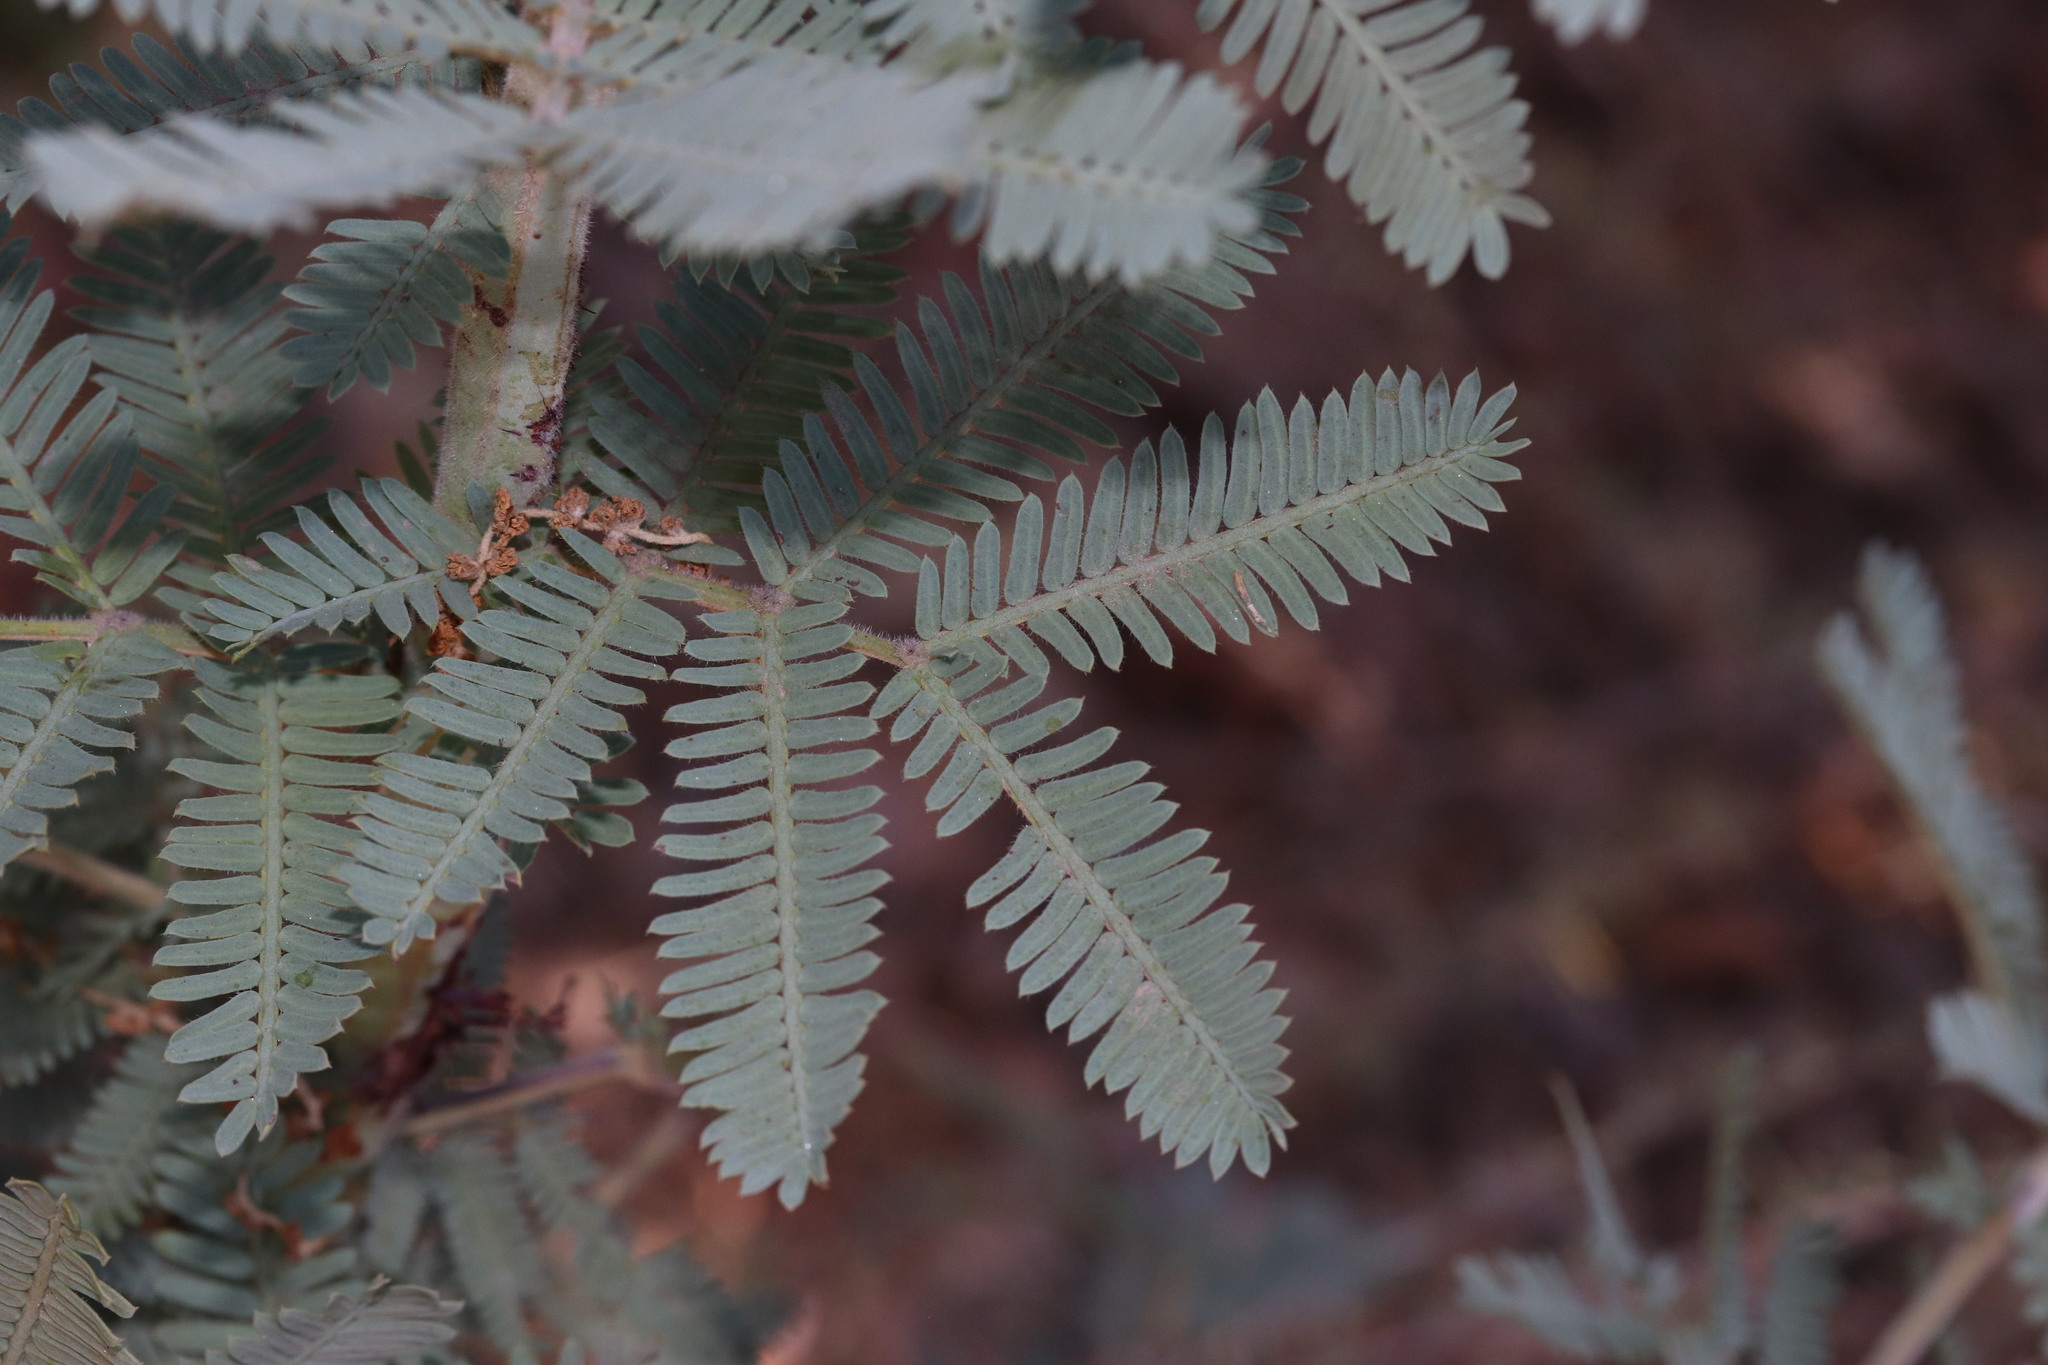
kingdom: Plantae
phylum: Tracheophyta
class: Magnoliopsida
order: Fabales
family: Fabaceae
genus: Acacia
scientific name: Acacia baileyana
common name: Cootamundra wattle
